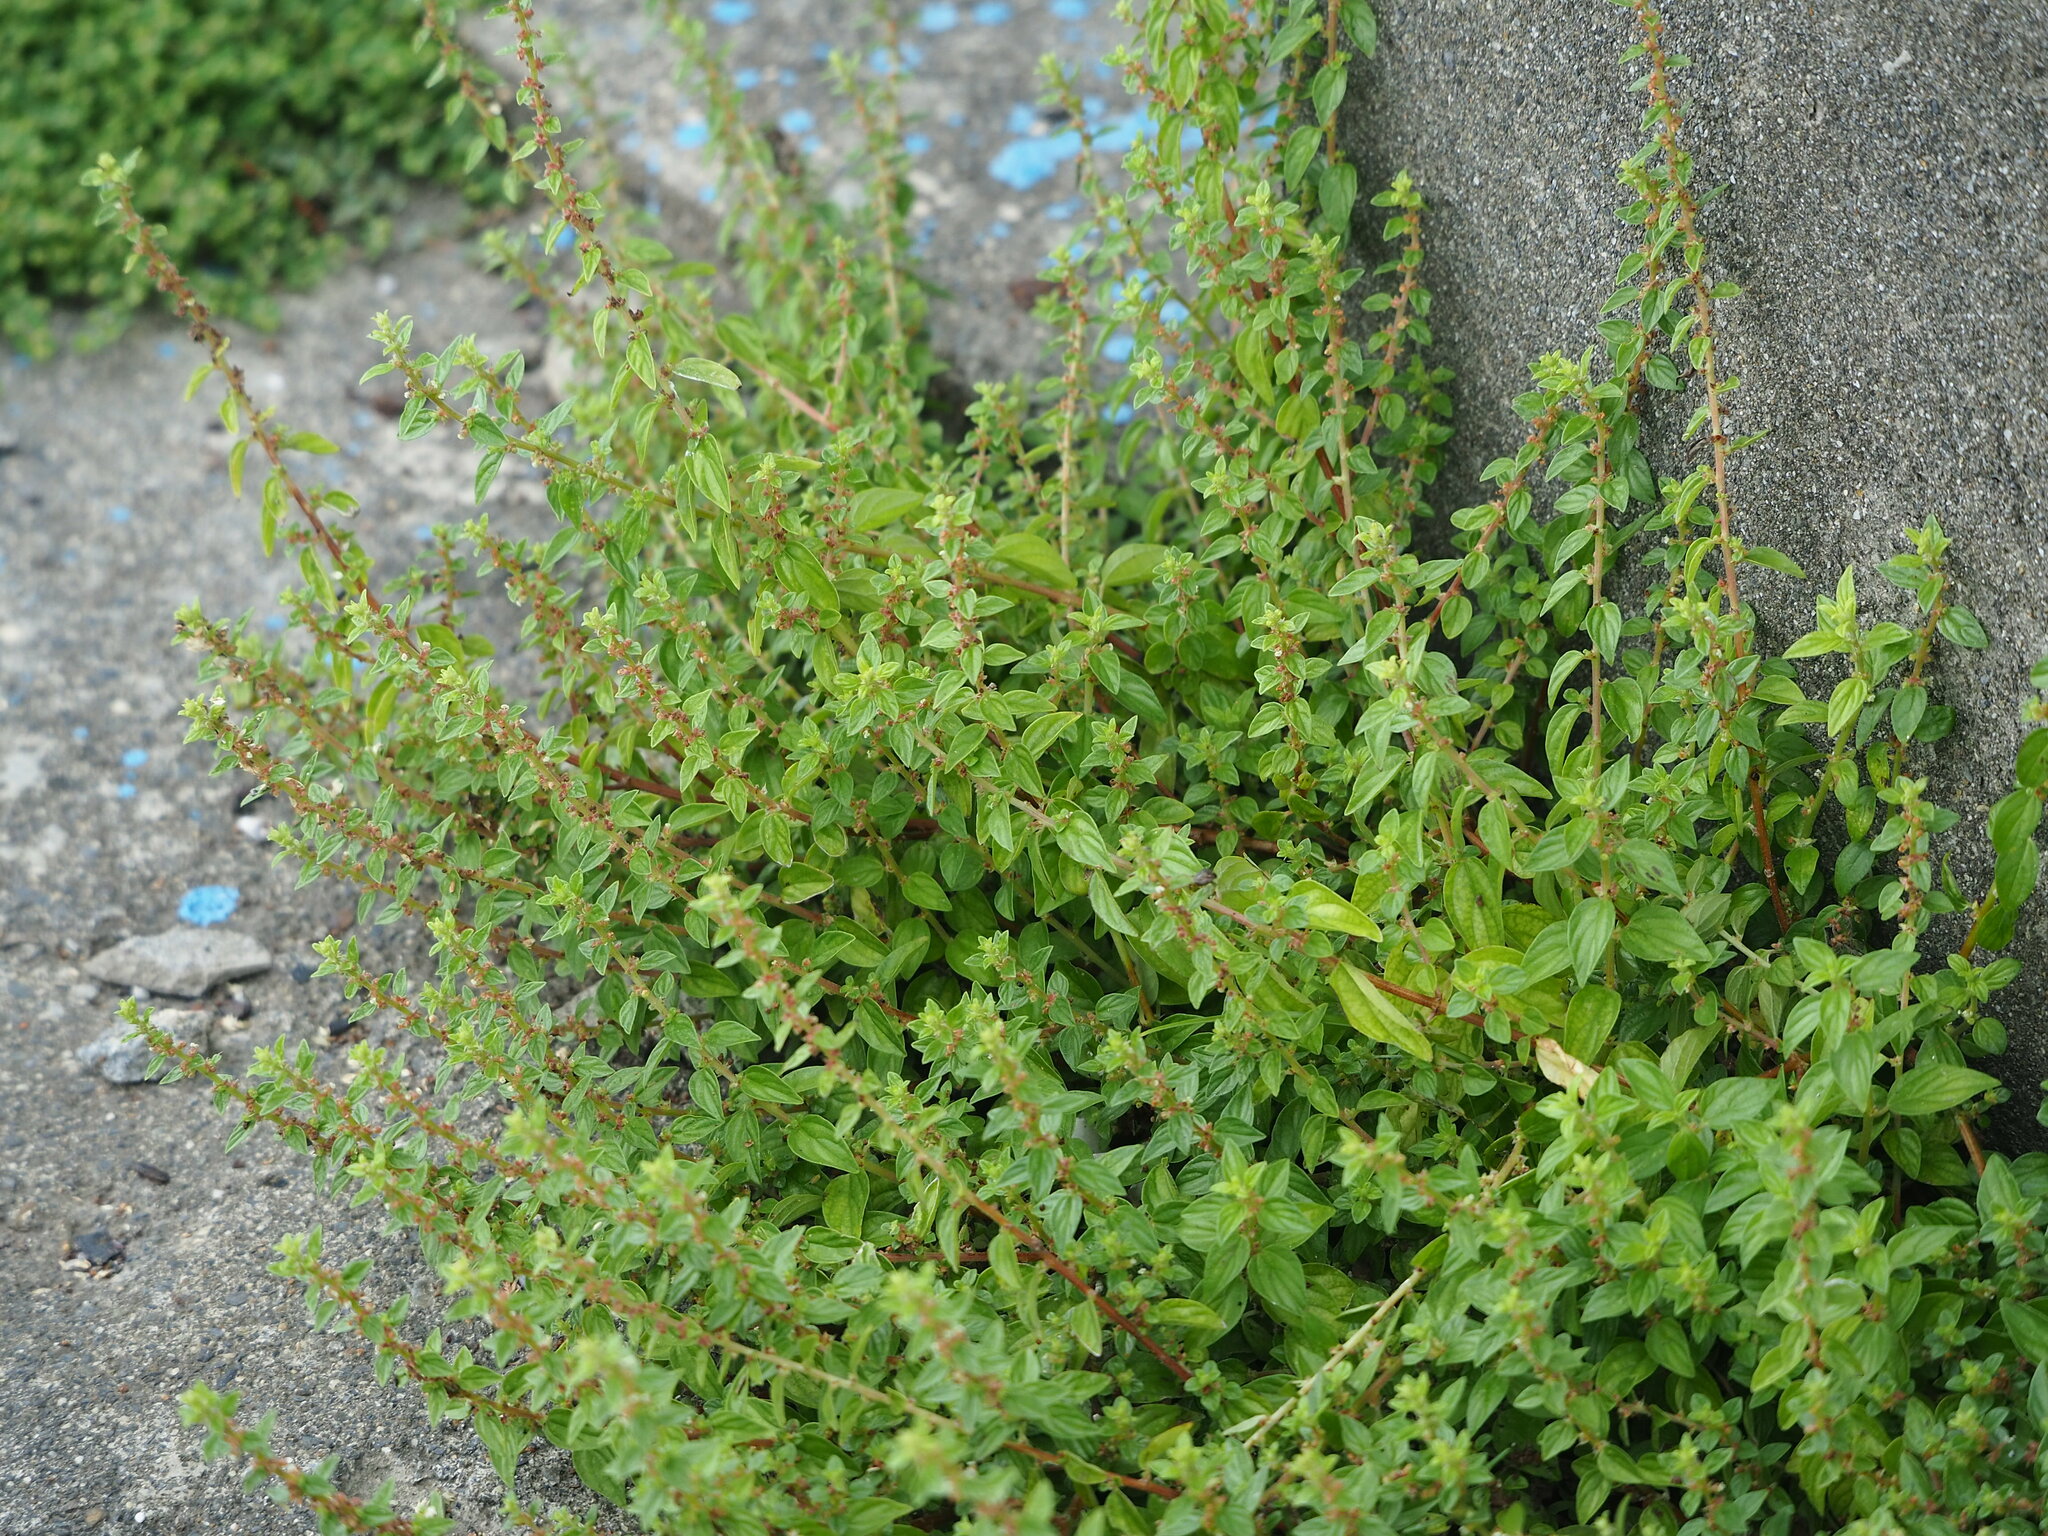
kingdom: Plantae
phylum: Tracheophyta
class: Magnoliopsida
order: Rosales
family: Urticaceae
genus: Pouzolzia
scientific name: Pouzolzia zeylanica
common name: Graceful pouzolzsbush
